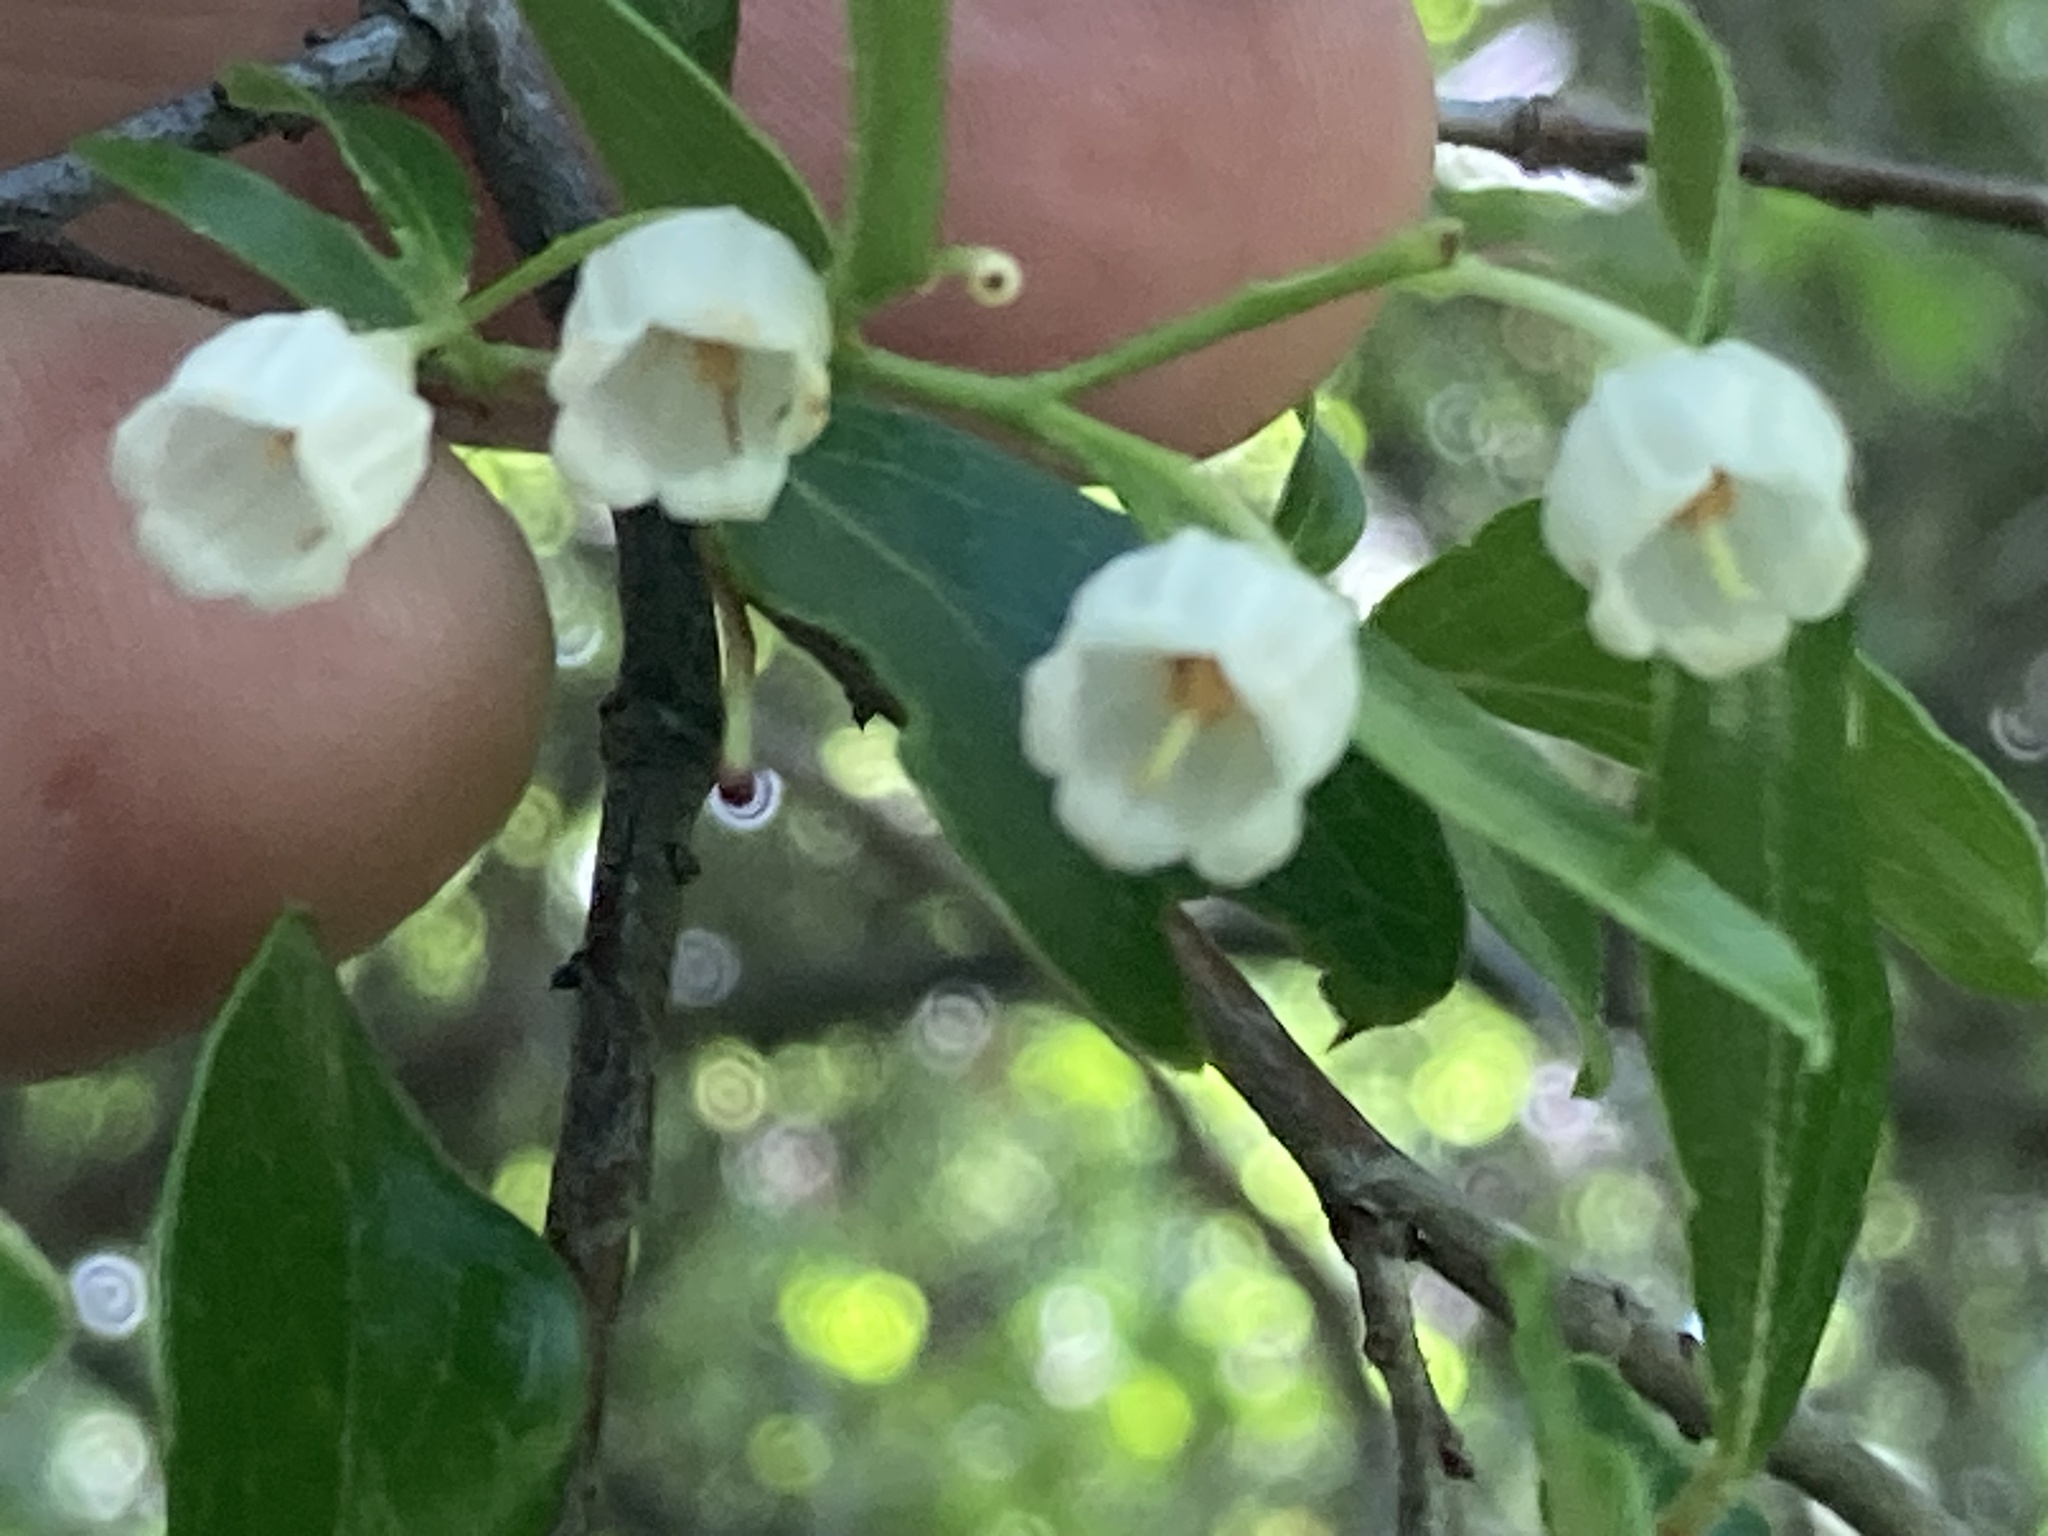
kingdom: Plantae
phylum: Tracheophyta
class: Magnoliopsida
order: Ericales
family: Ericaceae
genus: Vaccinium
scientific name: Vaccinium arboreum
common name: Farkleberry
